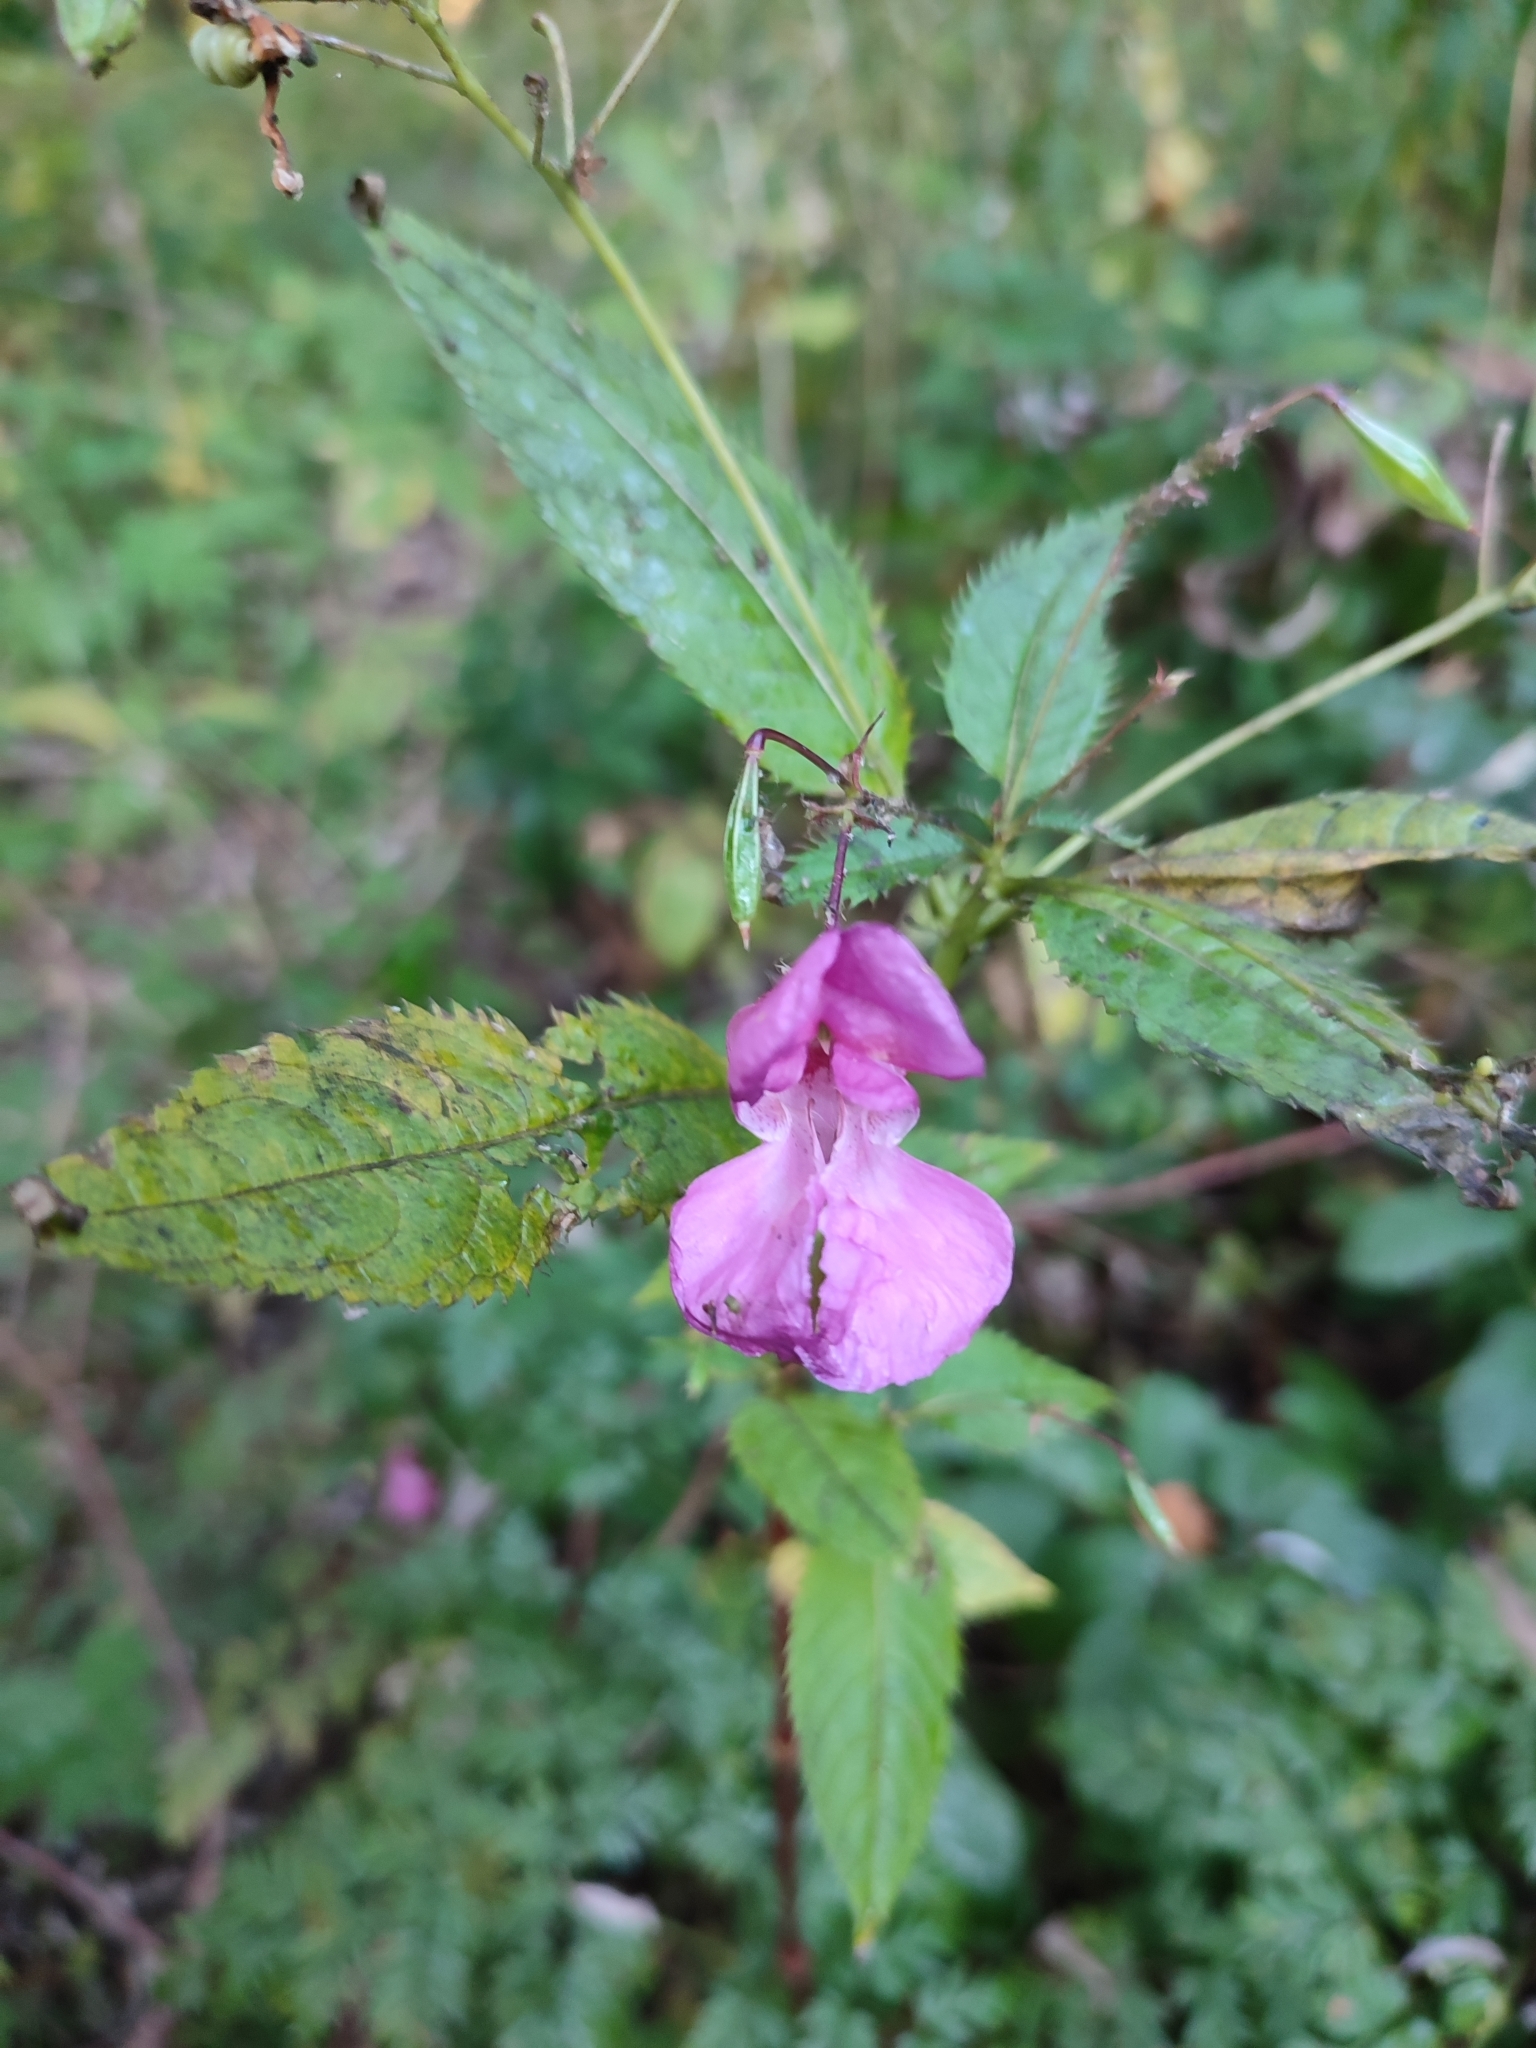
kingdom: Plantae
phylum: Tracheophyta
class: Magnoliopsida
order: Ericales
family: Balsaminaceae
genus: Impatiens
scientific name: Impatiens glandulifera
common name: Himalayan balsam
